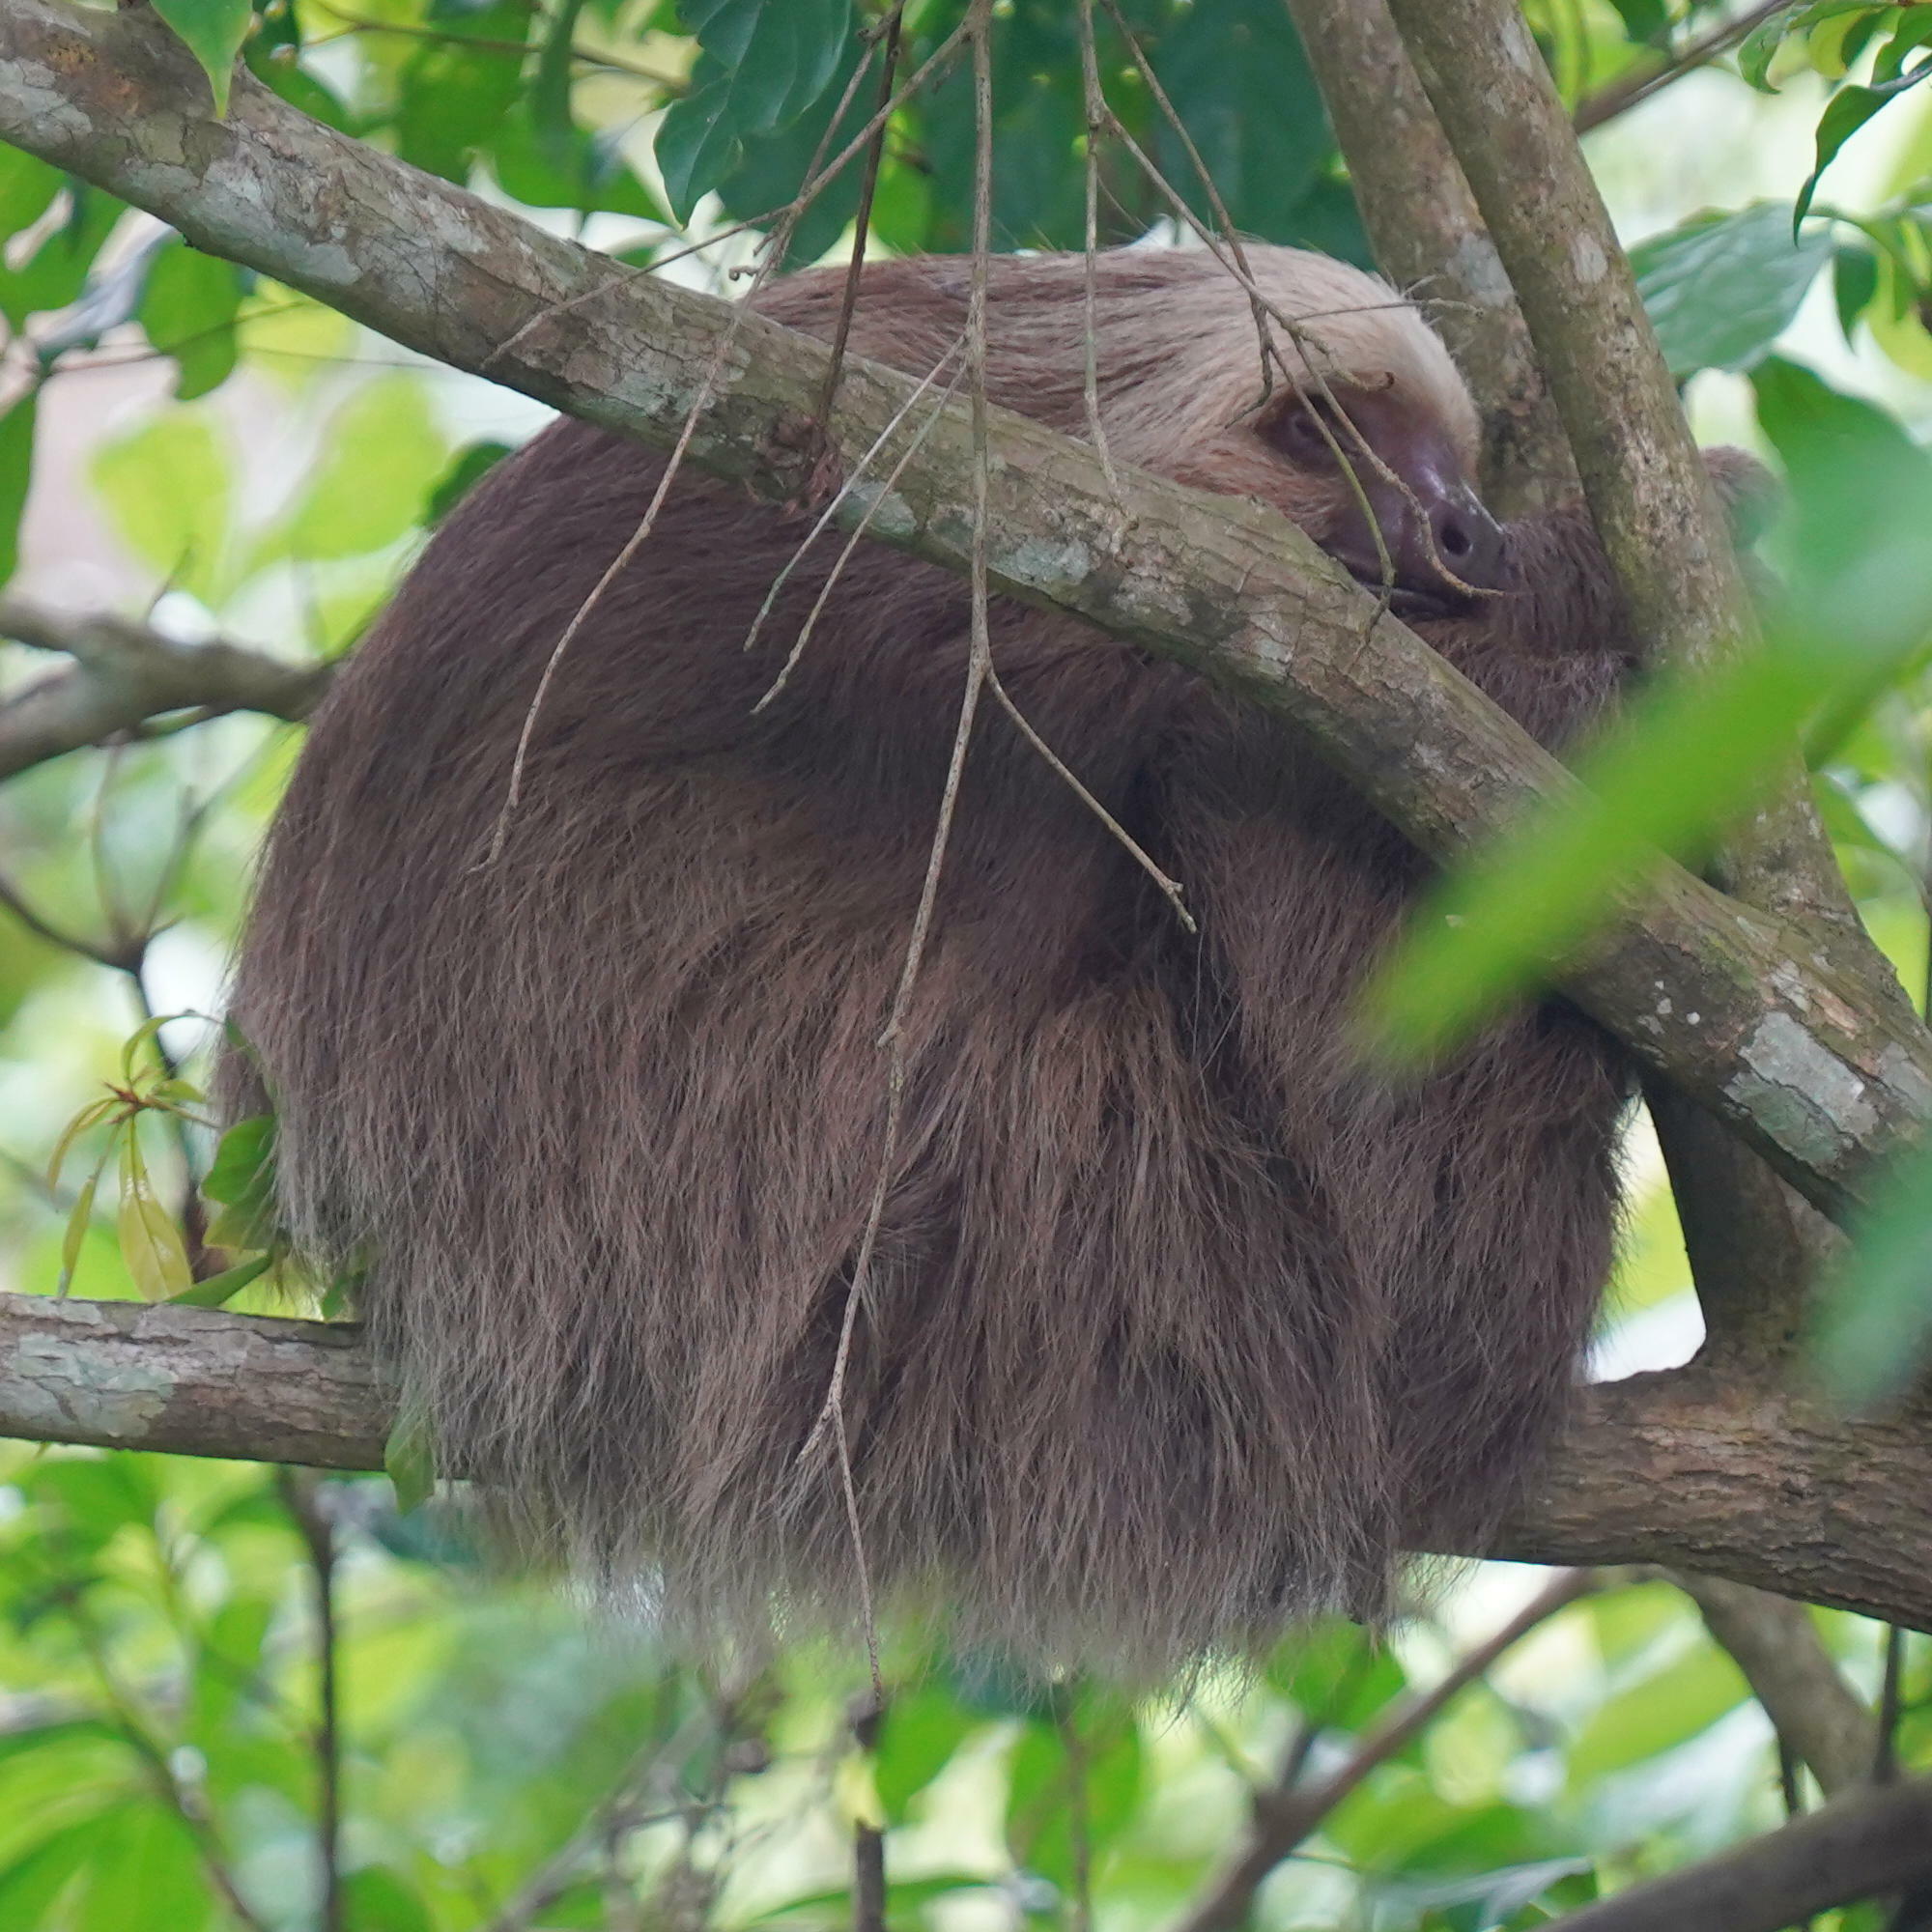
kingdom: Animalia
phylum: Chordata
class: Mammalia
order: Pilosa
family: Megalonychidae
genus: Choloepus
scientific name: Choloepus hoffmanni
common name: Hoffmann's two-toed sloth
